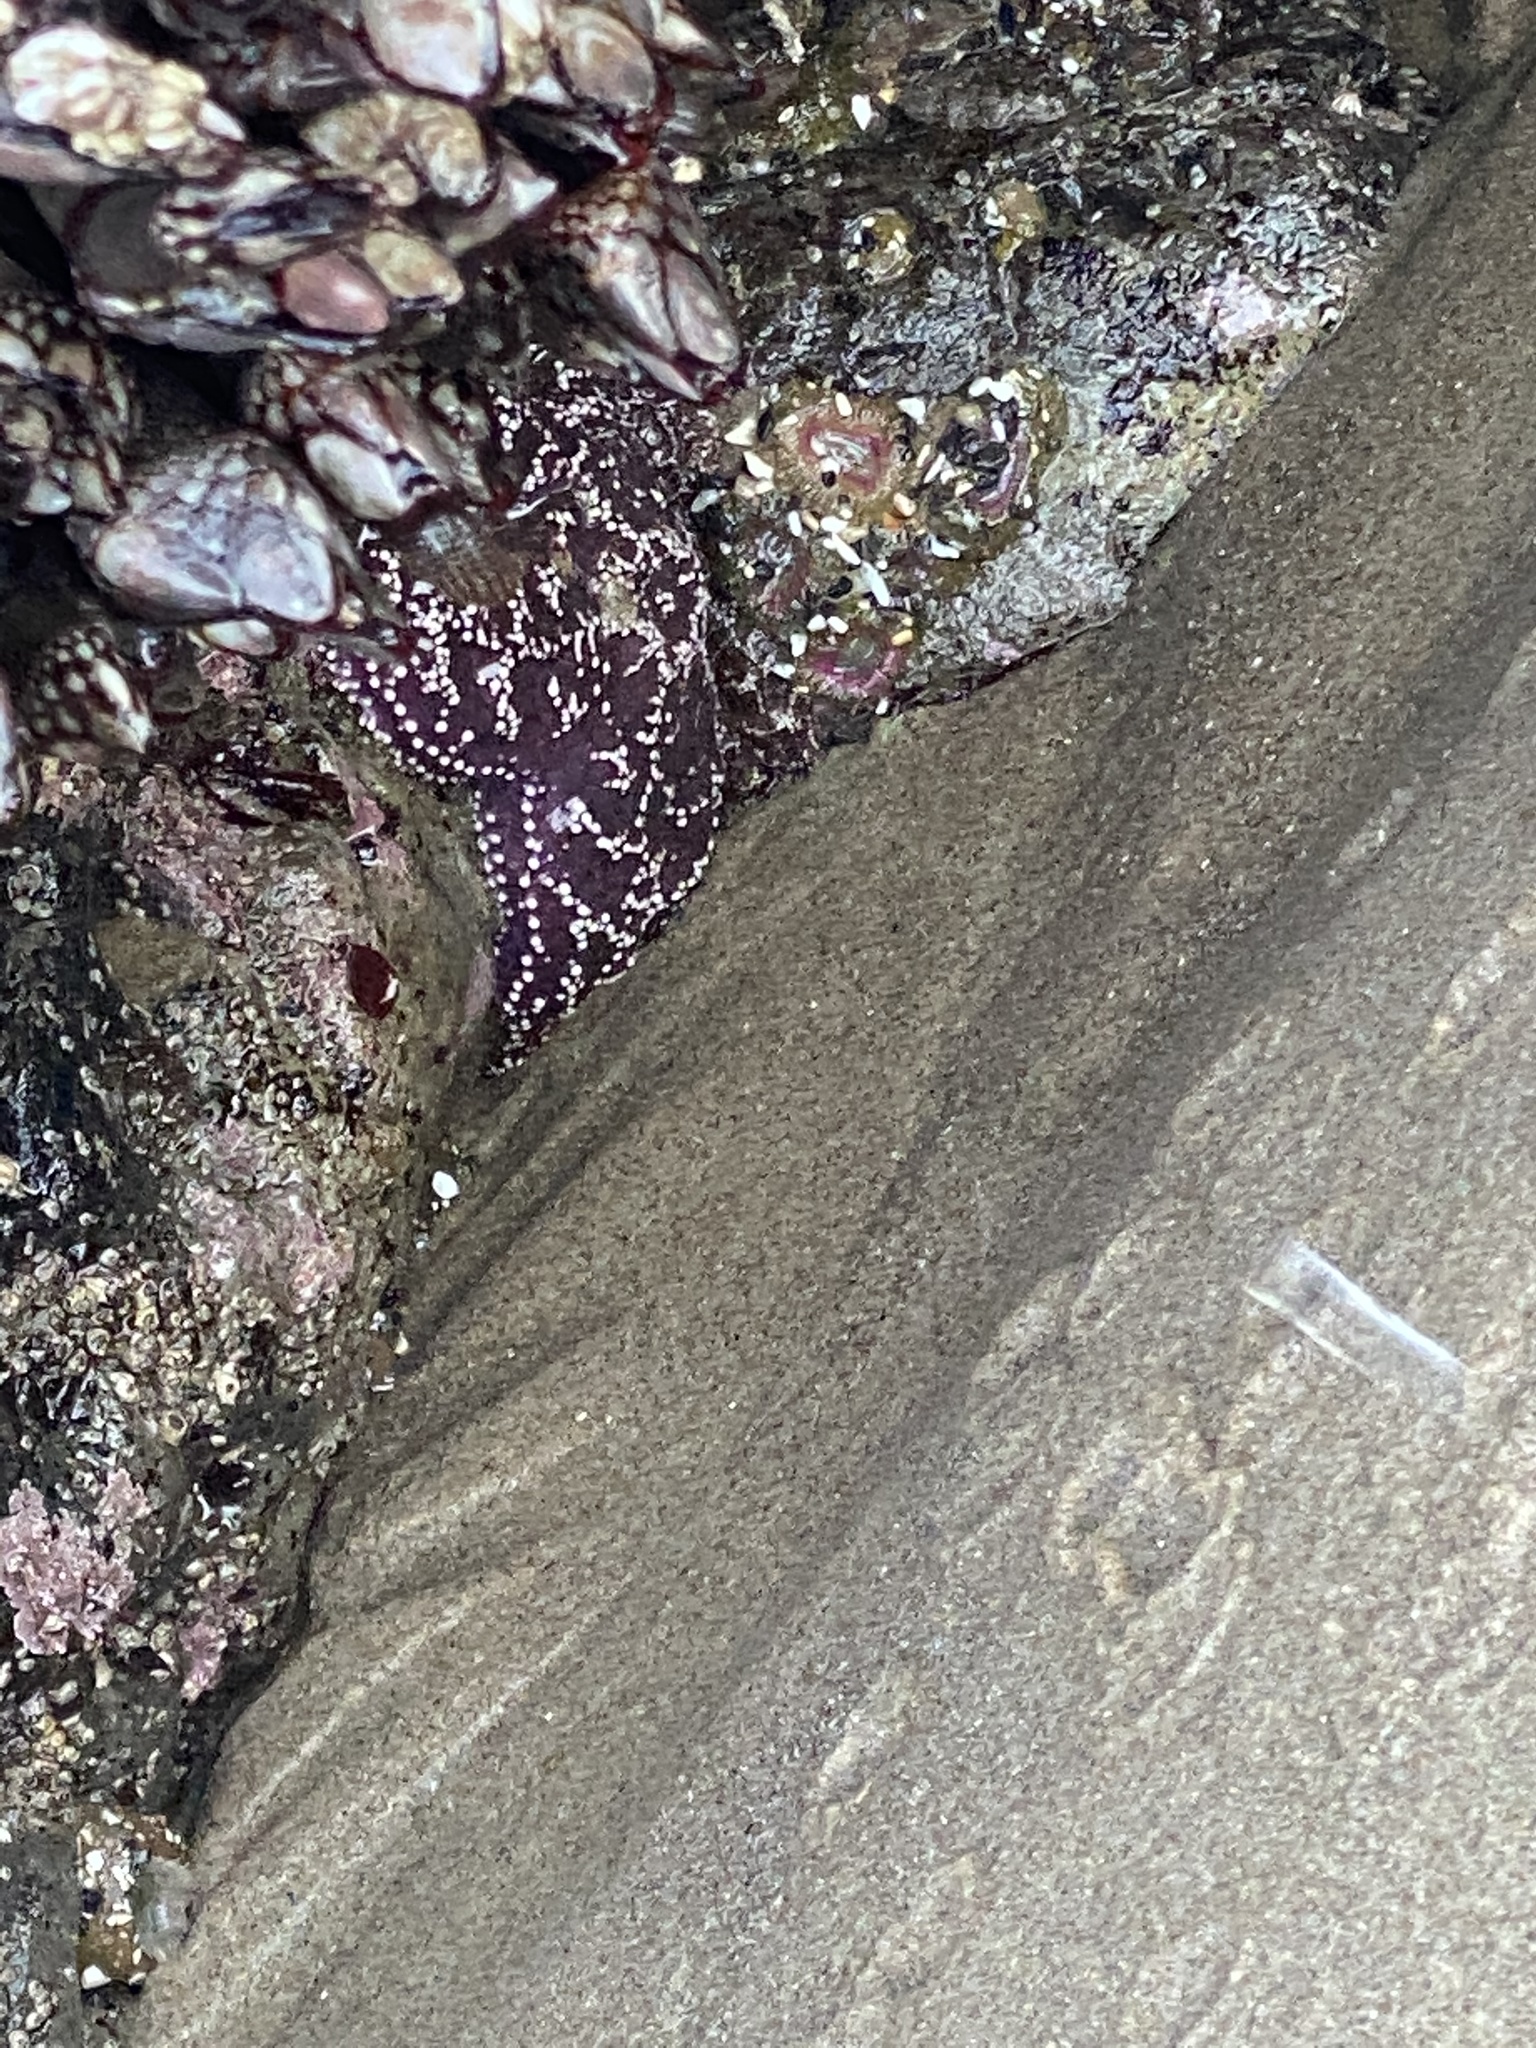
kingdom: Animalia
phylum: Echinodermata
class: Asteroidea
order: Forcipulatida
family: Asteriidae
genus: Pisaster
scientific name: Pisaster ochraceus
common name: Ochre stars
